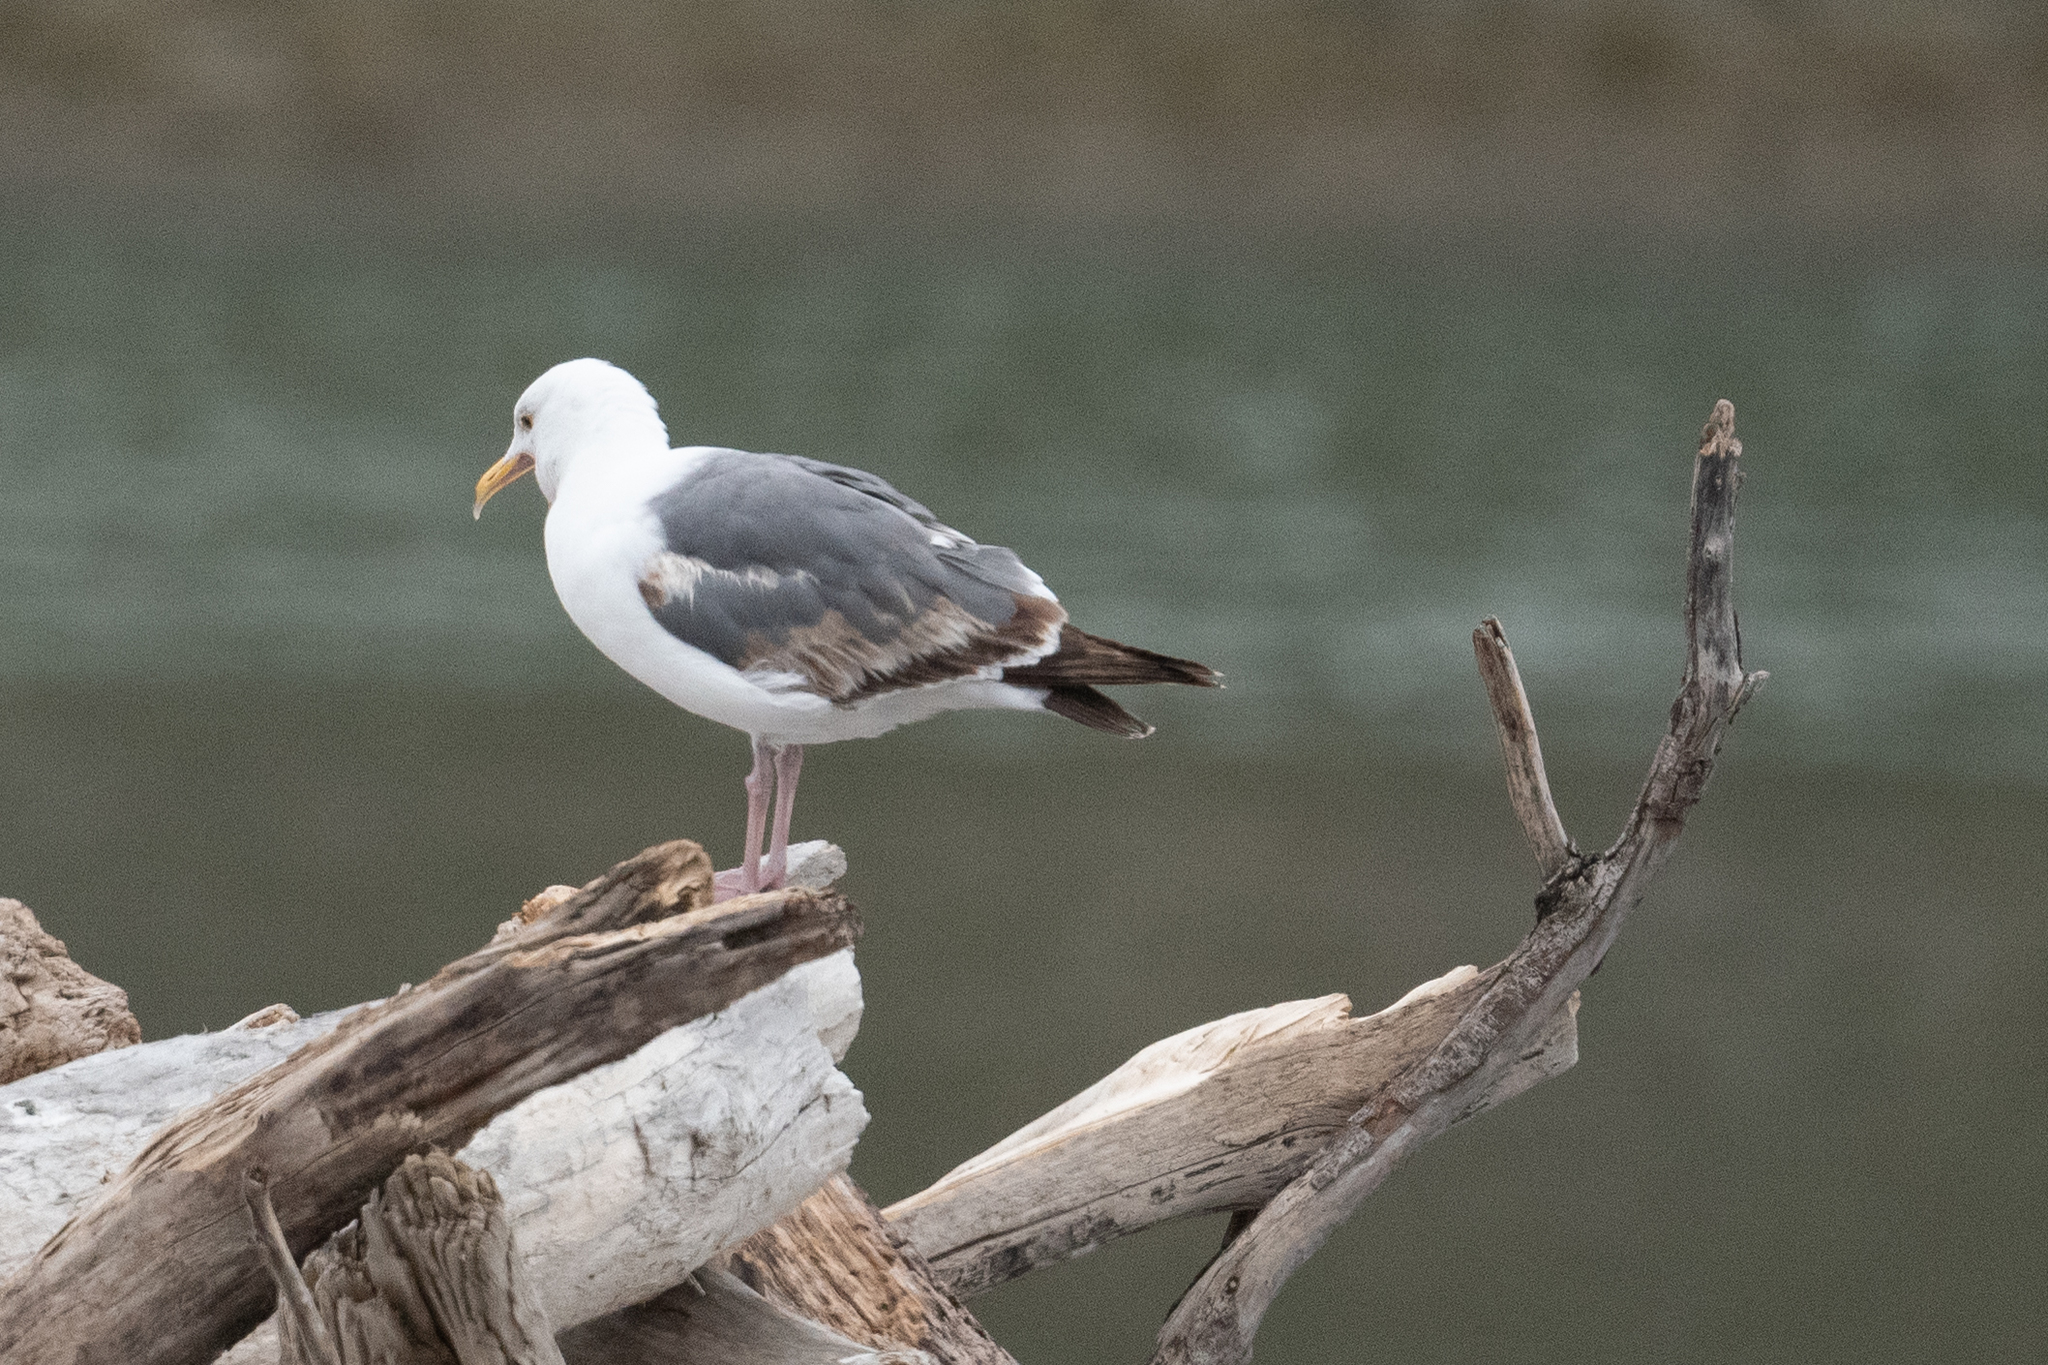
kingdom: Animalia
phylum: Chordata
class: Aves
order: Charadriiformes
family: Laridae
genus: Larus
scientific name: Larus occidentalis
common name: Western gull
